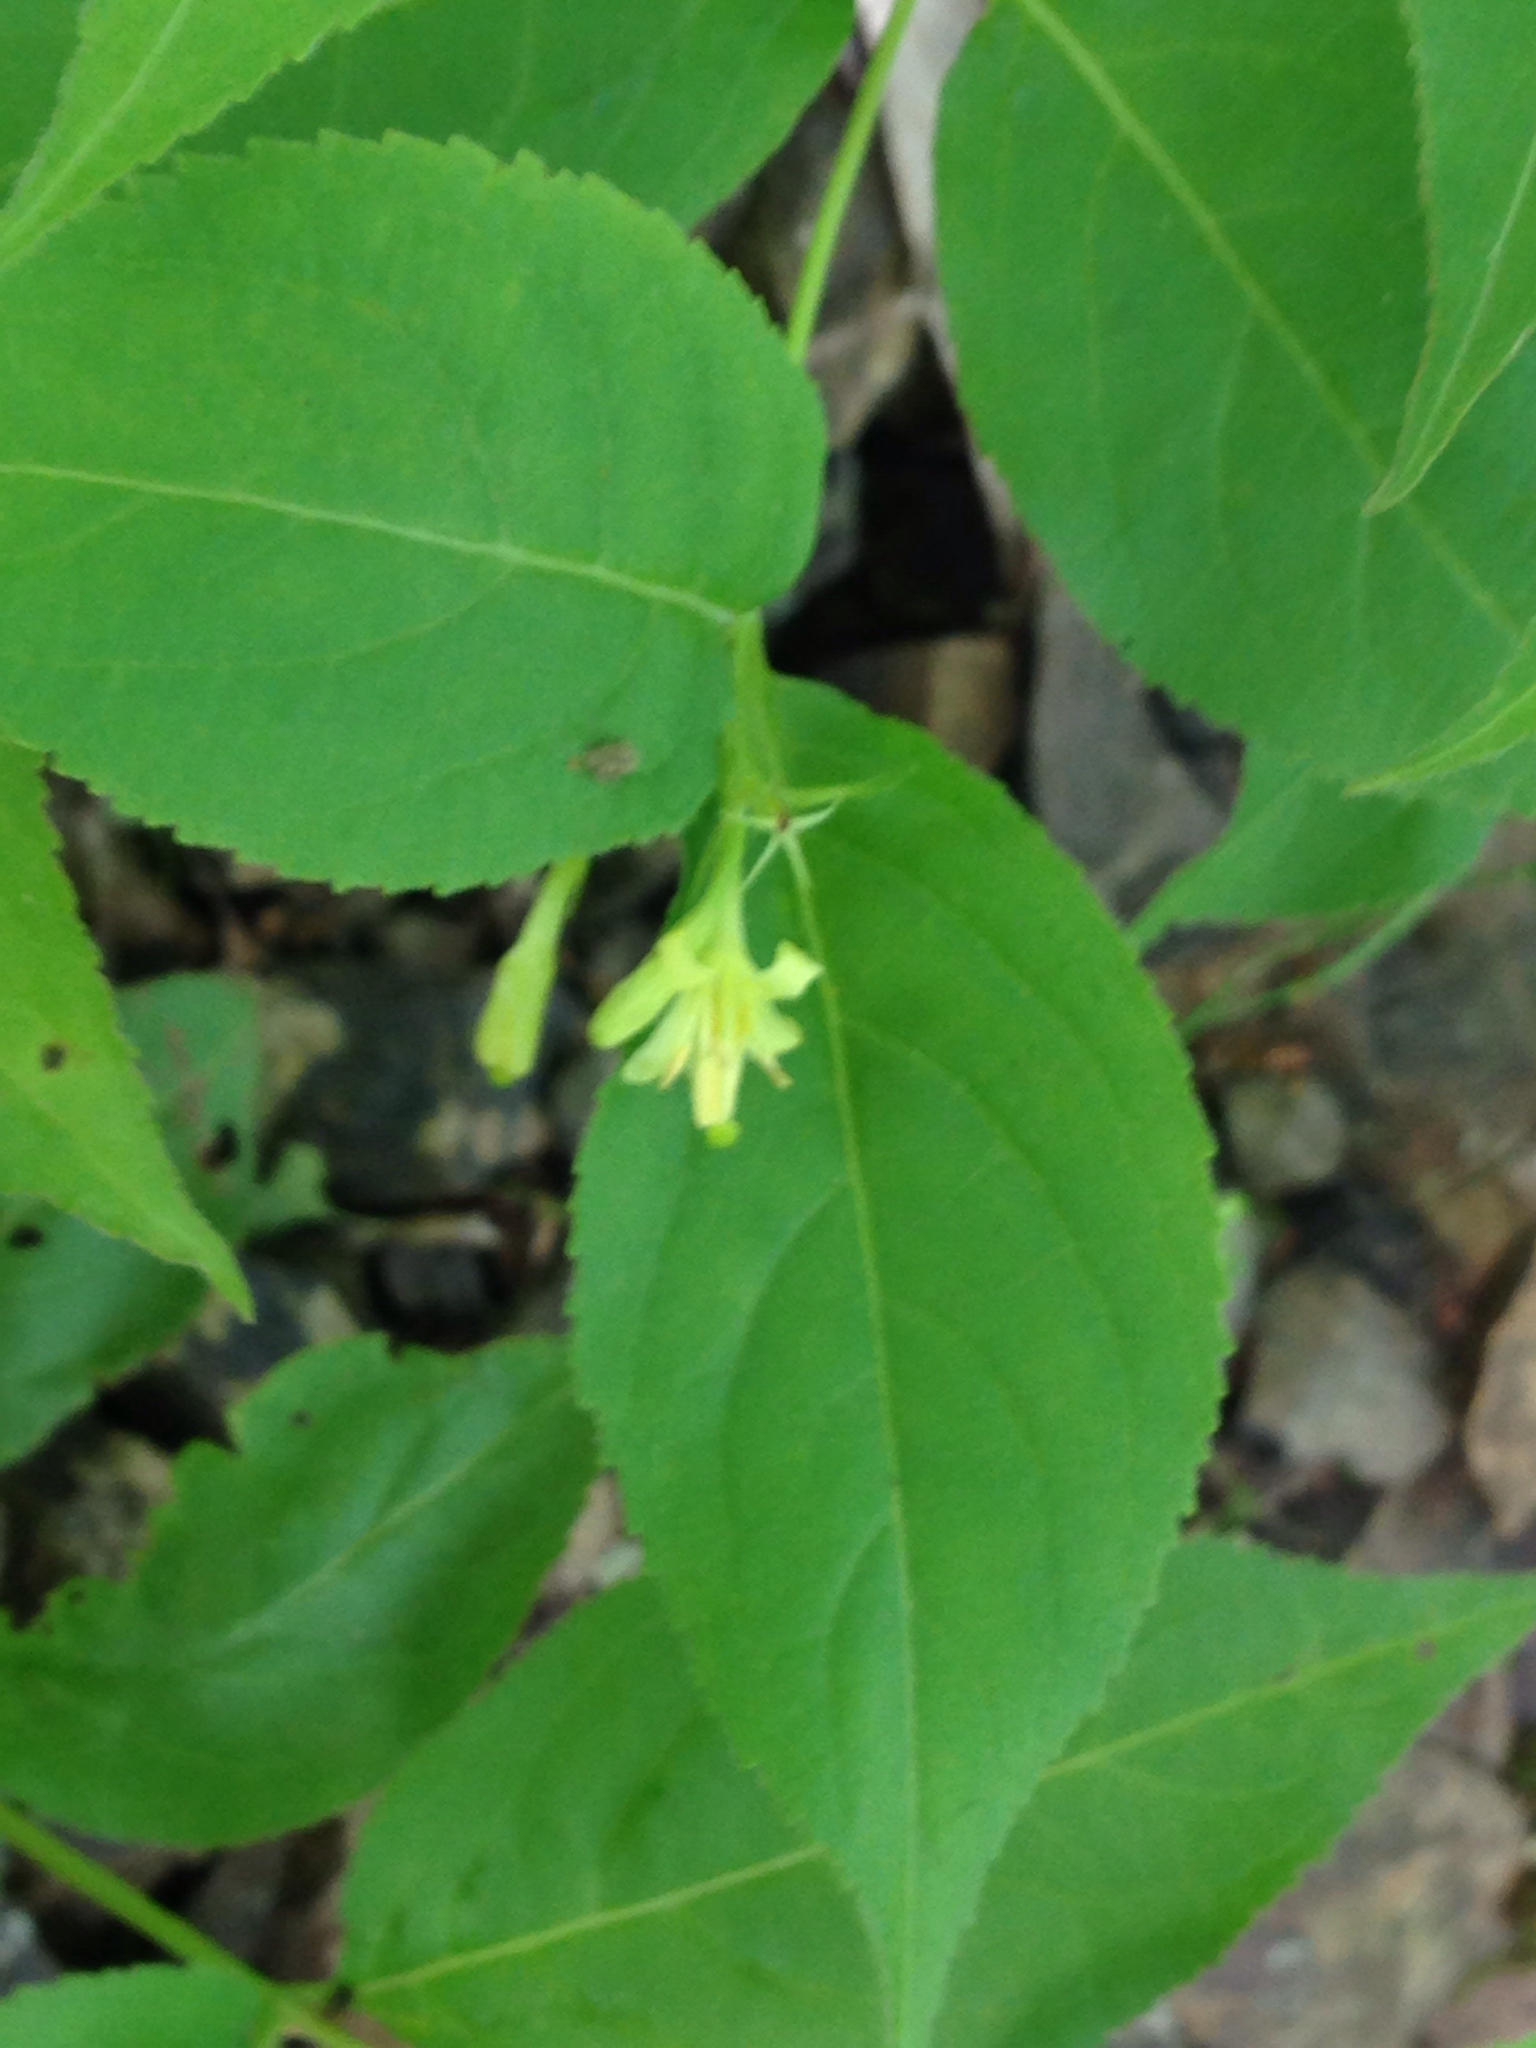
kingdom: Plantae
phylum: Tracheophyta
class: Magnoliopsida
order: Dipsacales
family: Caprifoliaceae
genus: Diervilla
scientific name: Diervilla lonicera
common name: Bush-honeysuckle
